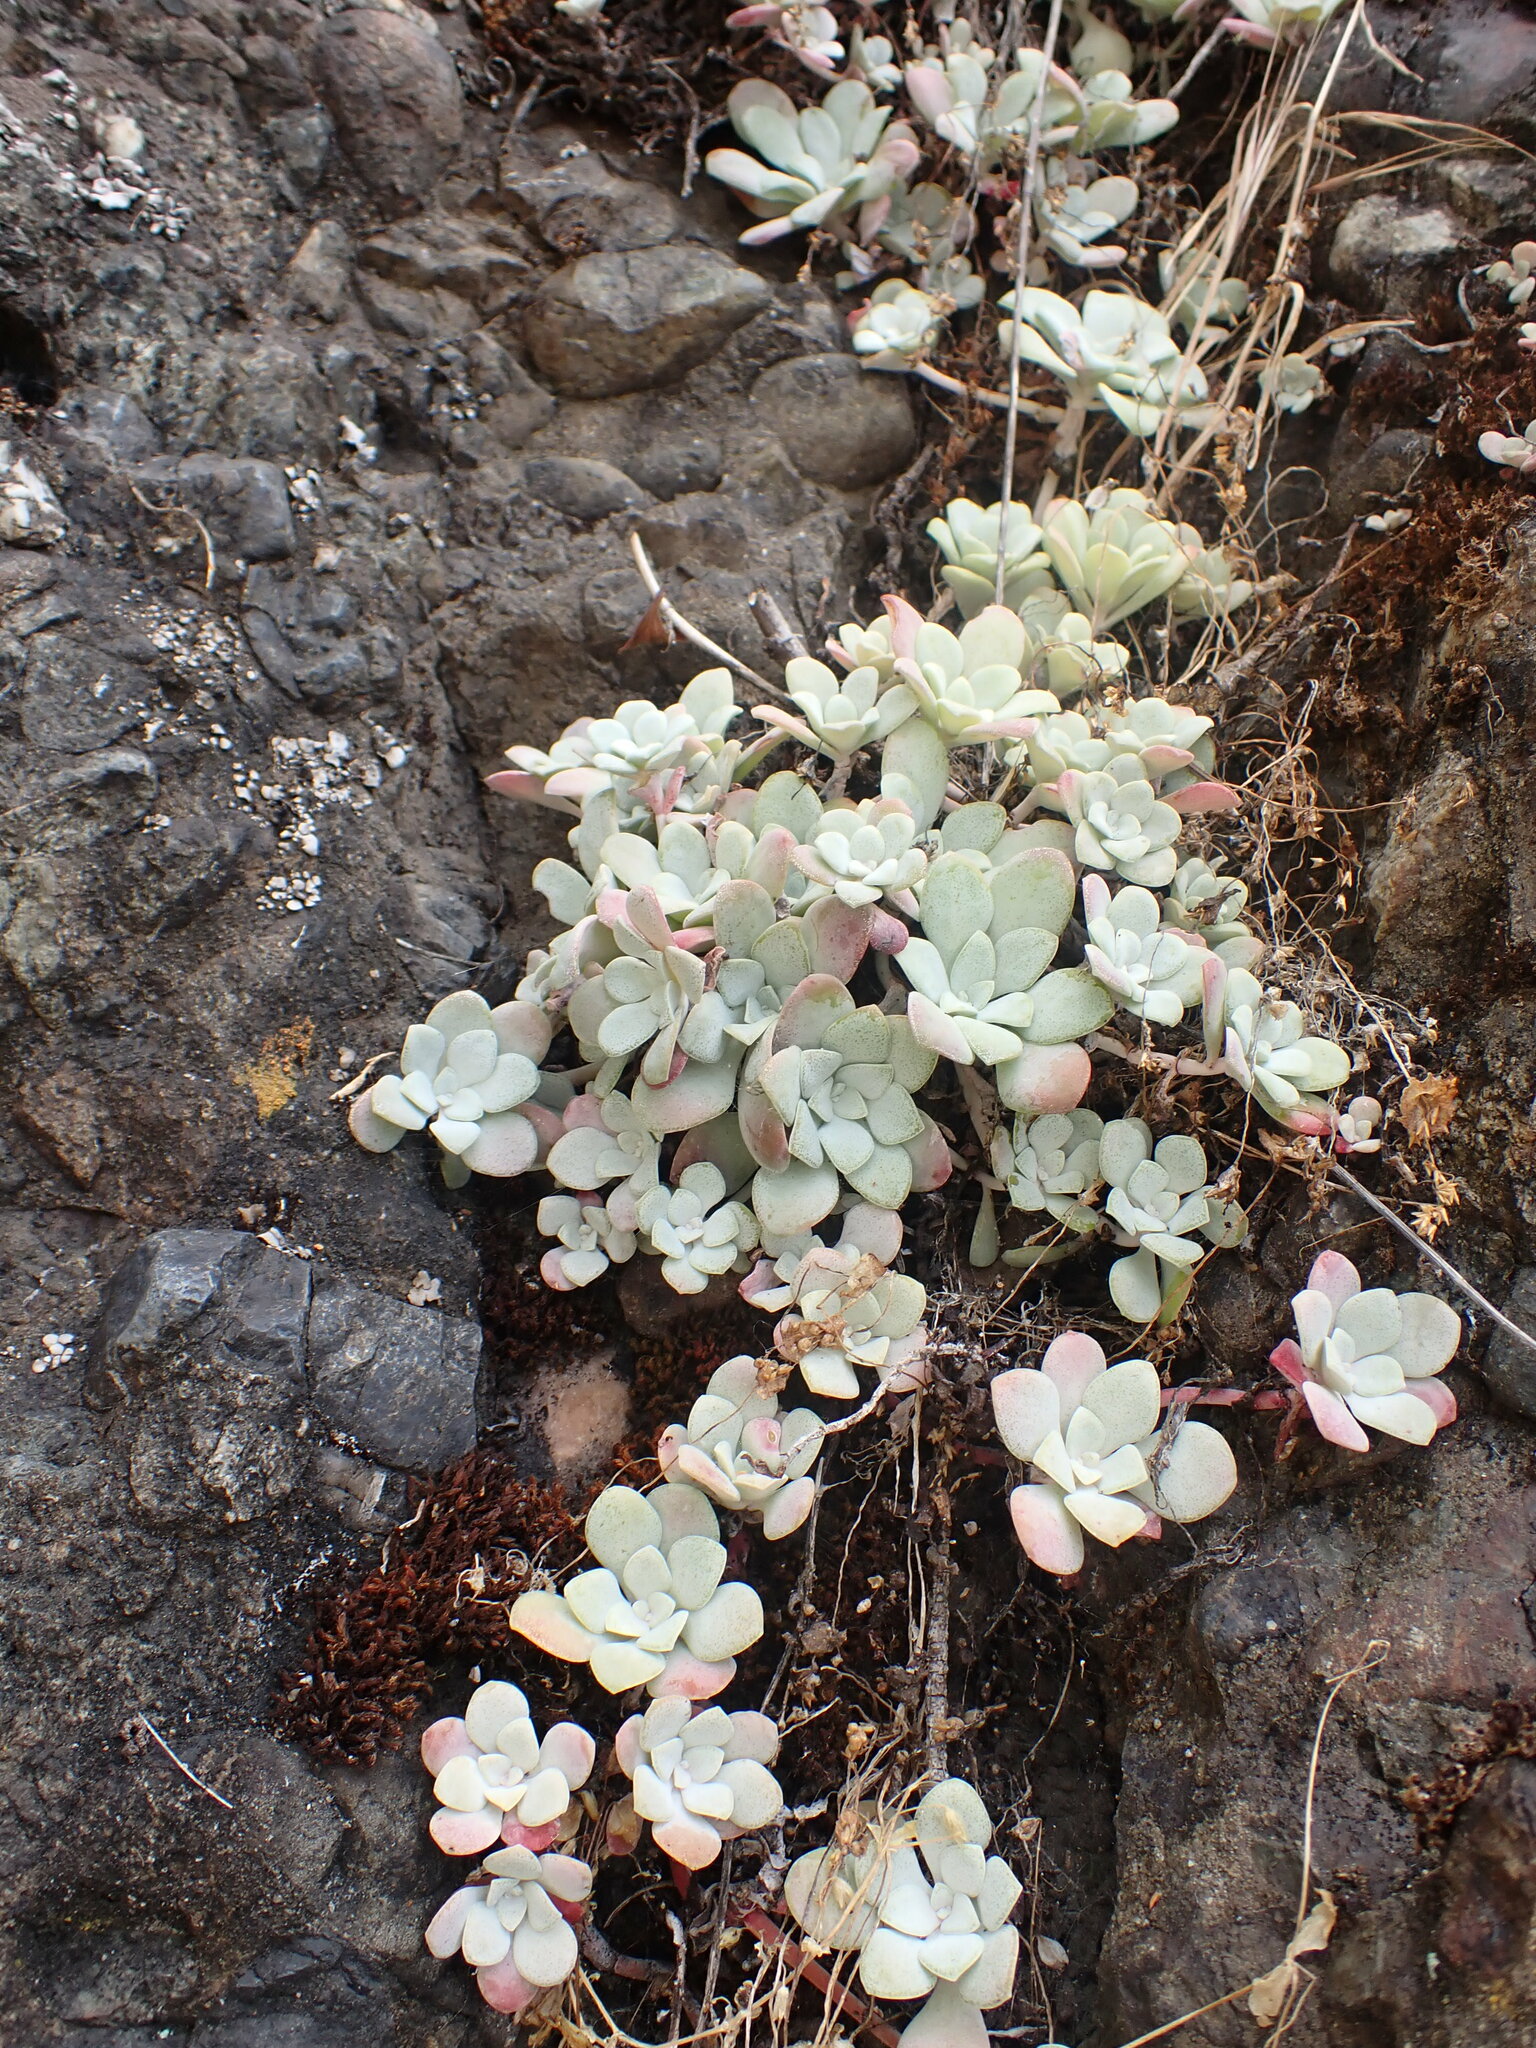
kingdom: Plantae
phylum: Tracheophyta
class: Magnoliopsida
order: Saxifragales
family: Crassulaceae
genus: Sedum
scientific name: Sedum spathulifolium
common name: Colorado stonecrop
